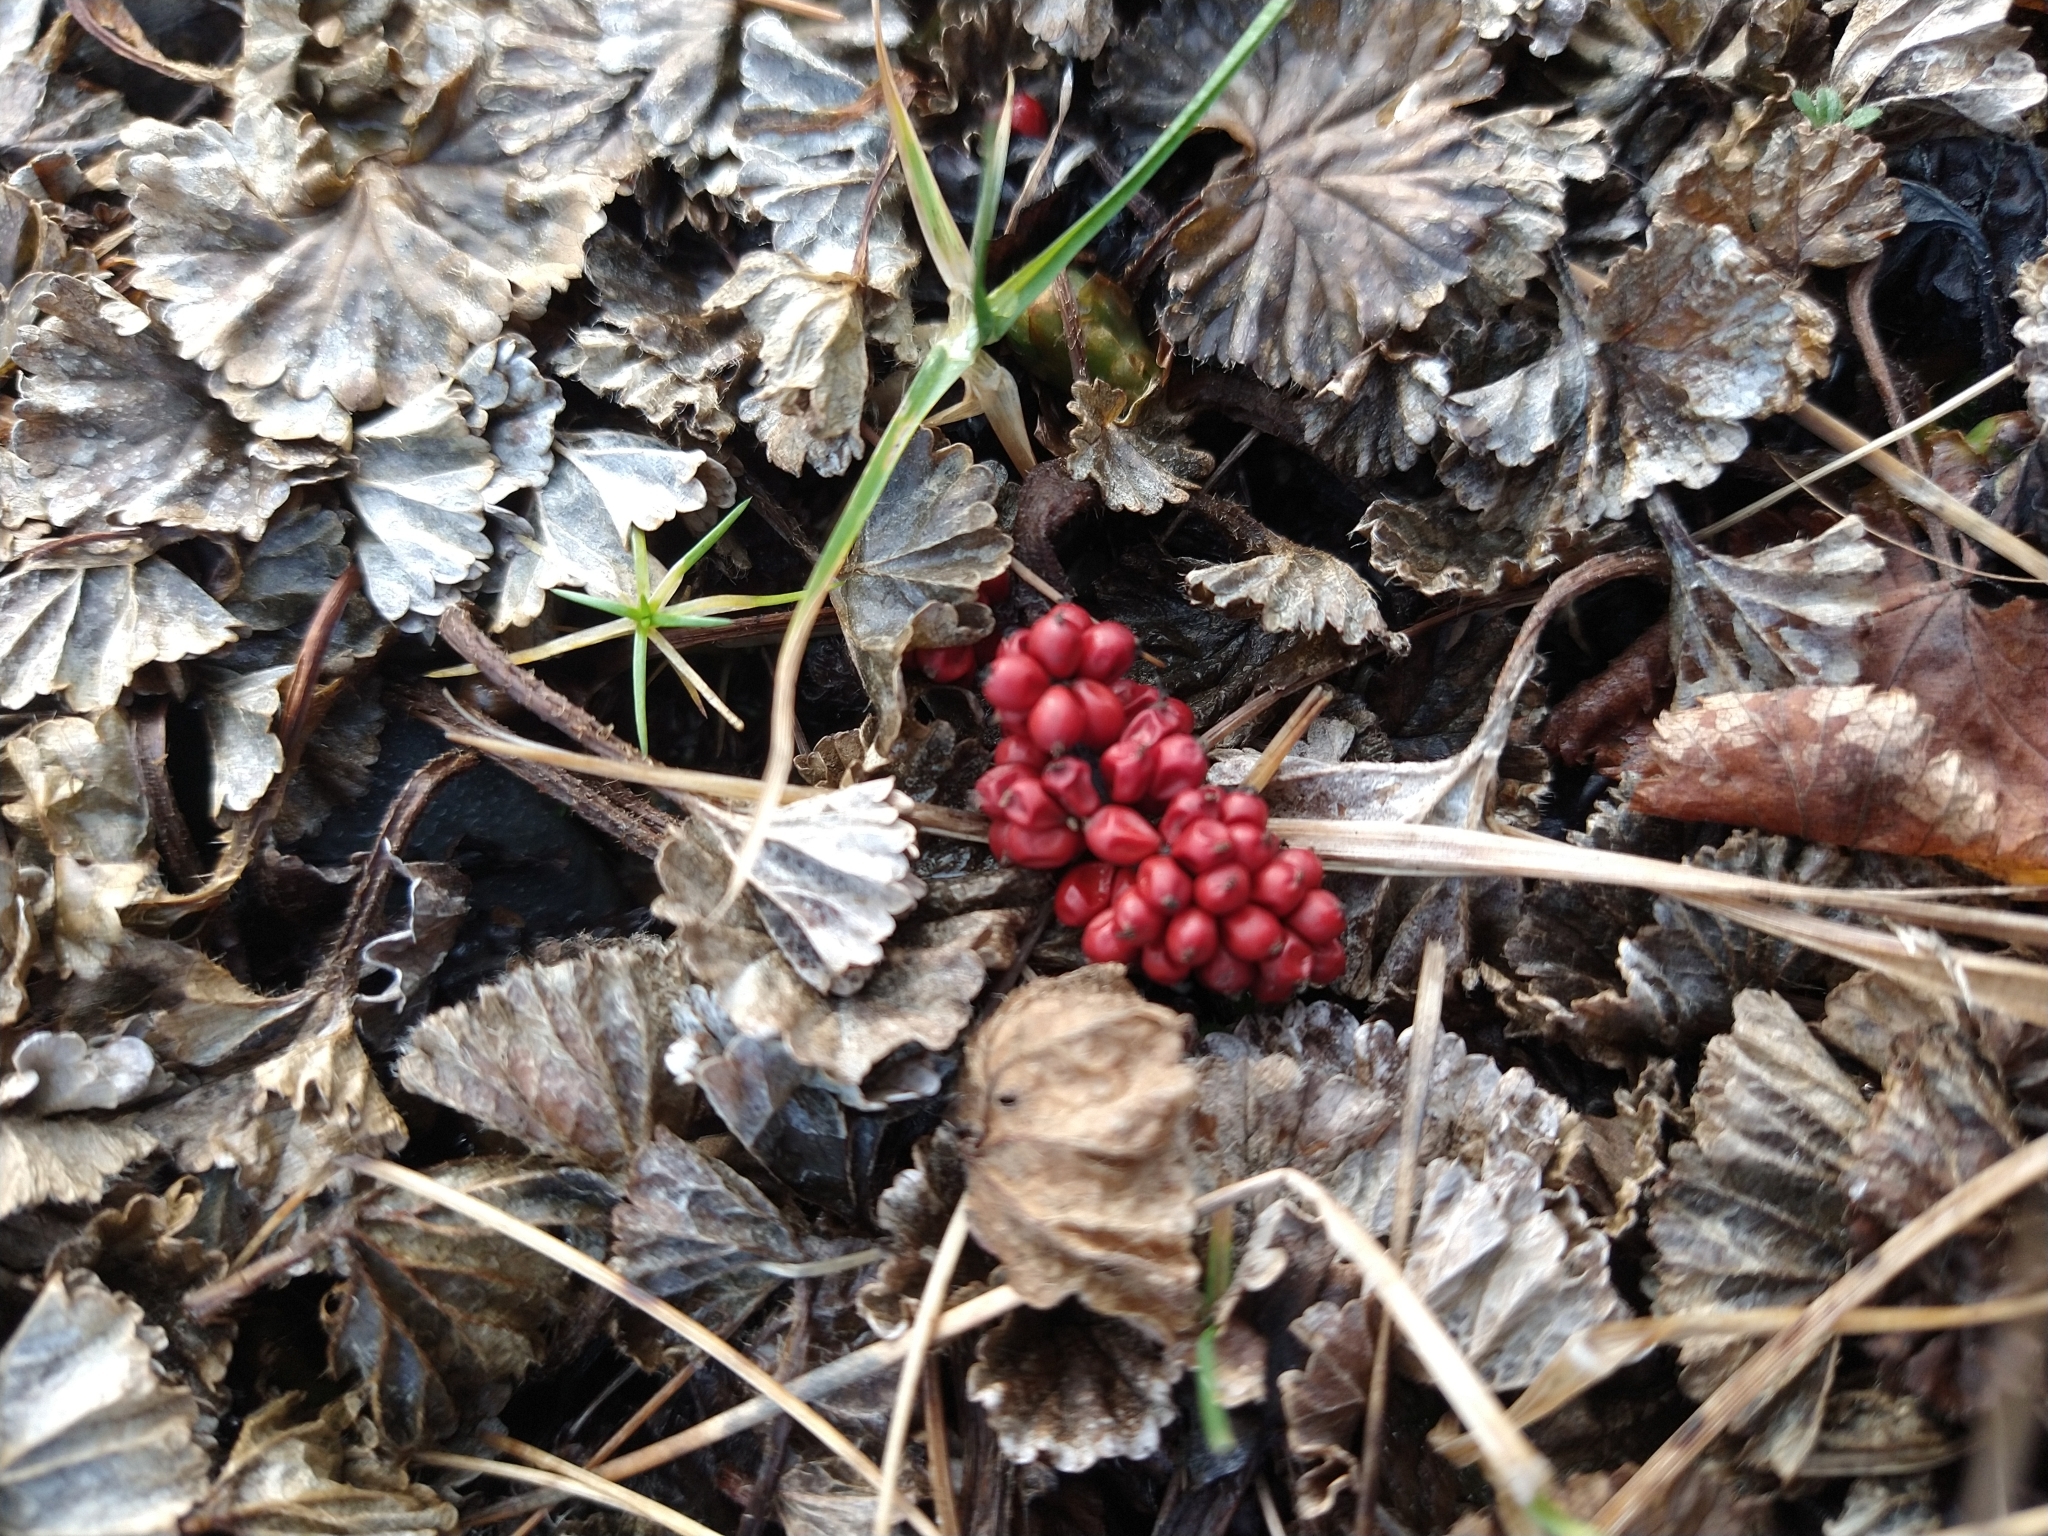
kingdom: Plantae
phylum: Tracheophyta
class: Magnoliopsida
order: Gunnerales
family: Gunneraceae
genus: Gunnera
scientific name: Gunnera magellanica
